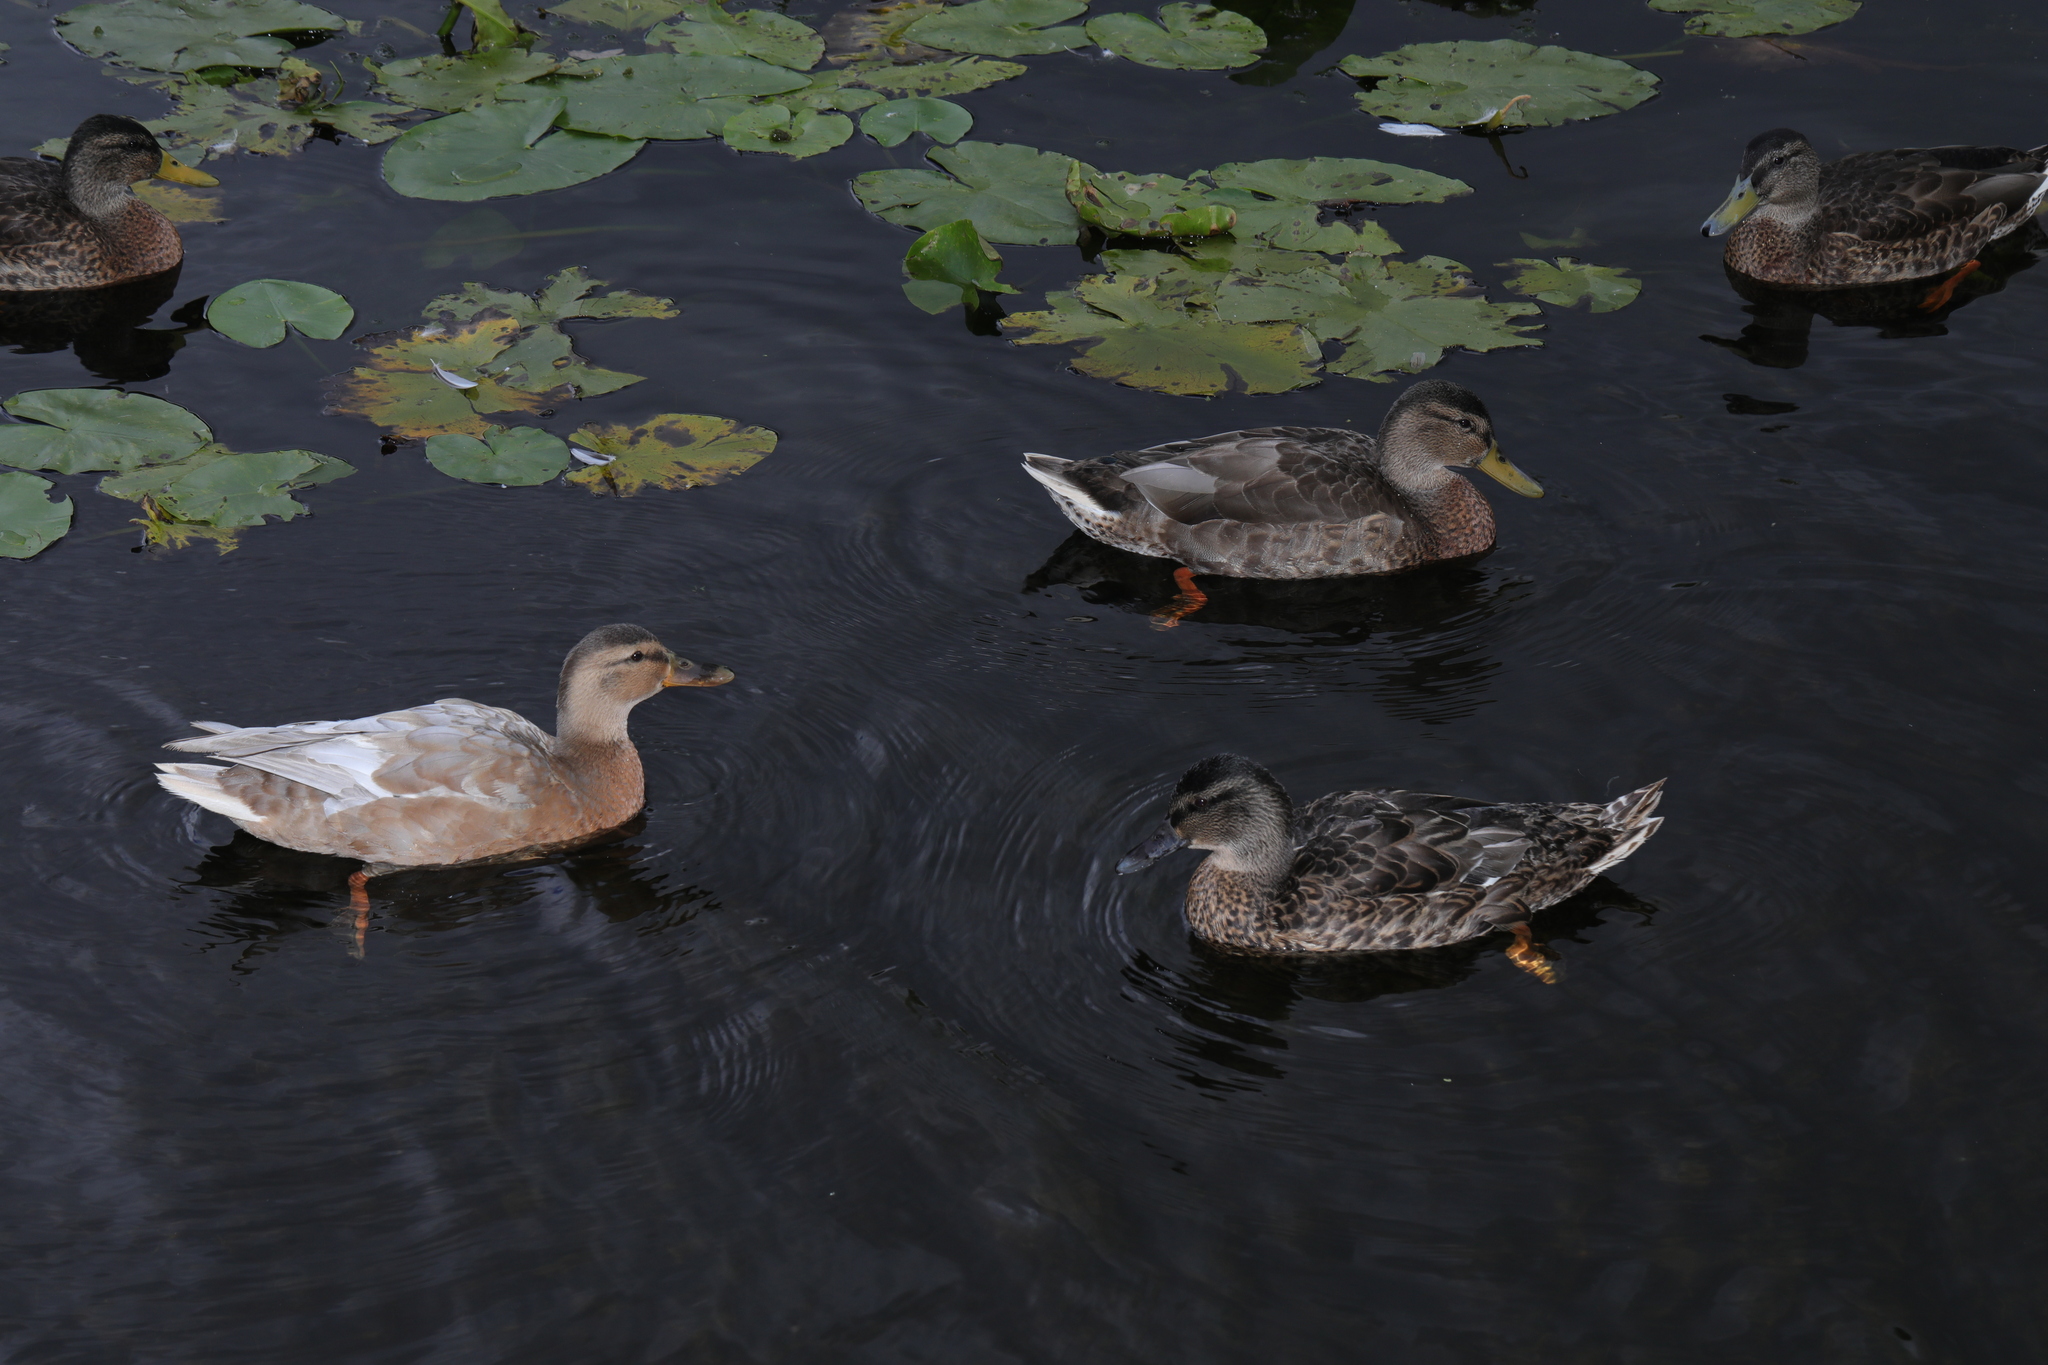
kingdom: Animalia
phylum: Chordata
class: Aves
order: Anseriformes
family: Anatidae
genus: Anas
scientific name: Anas platyrhynchos
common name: Mallard
